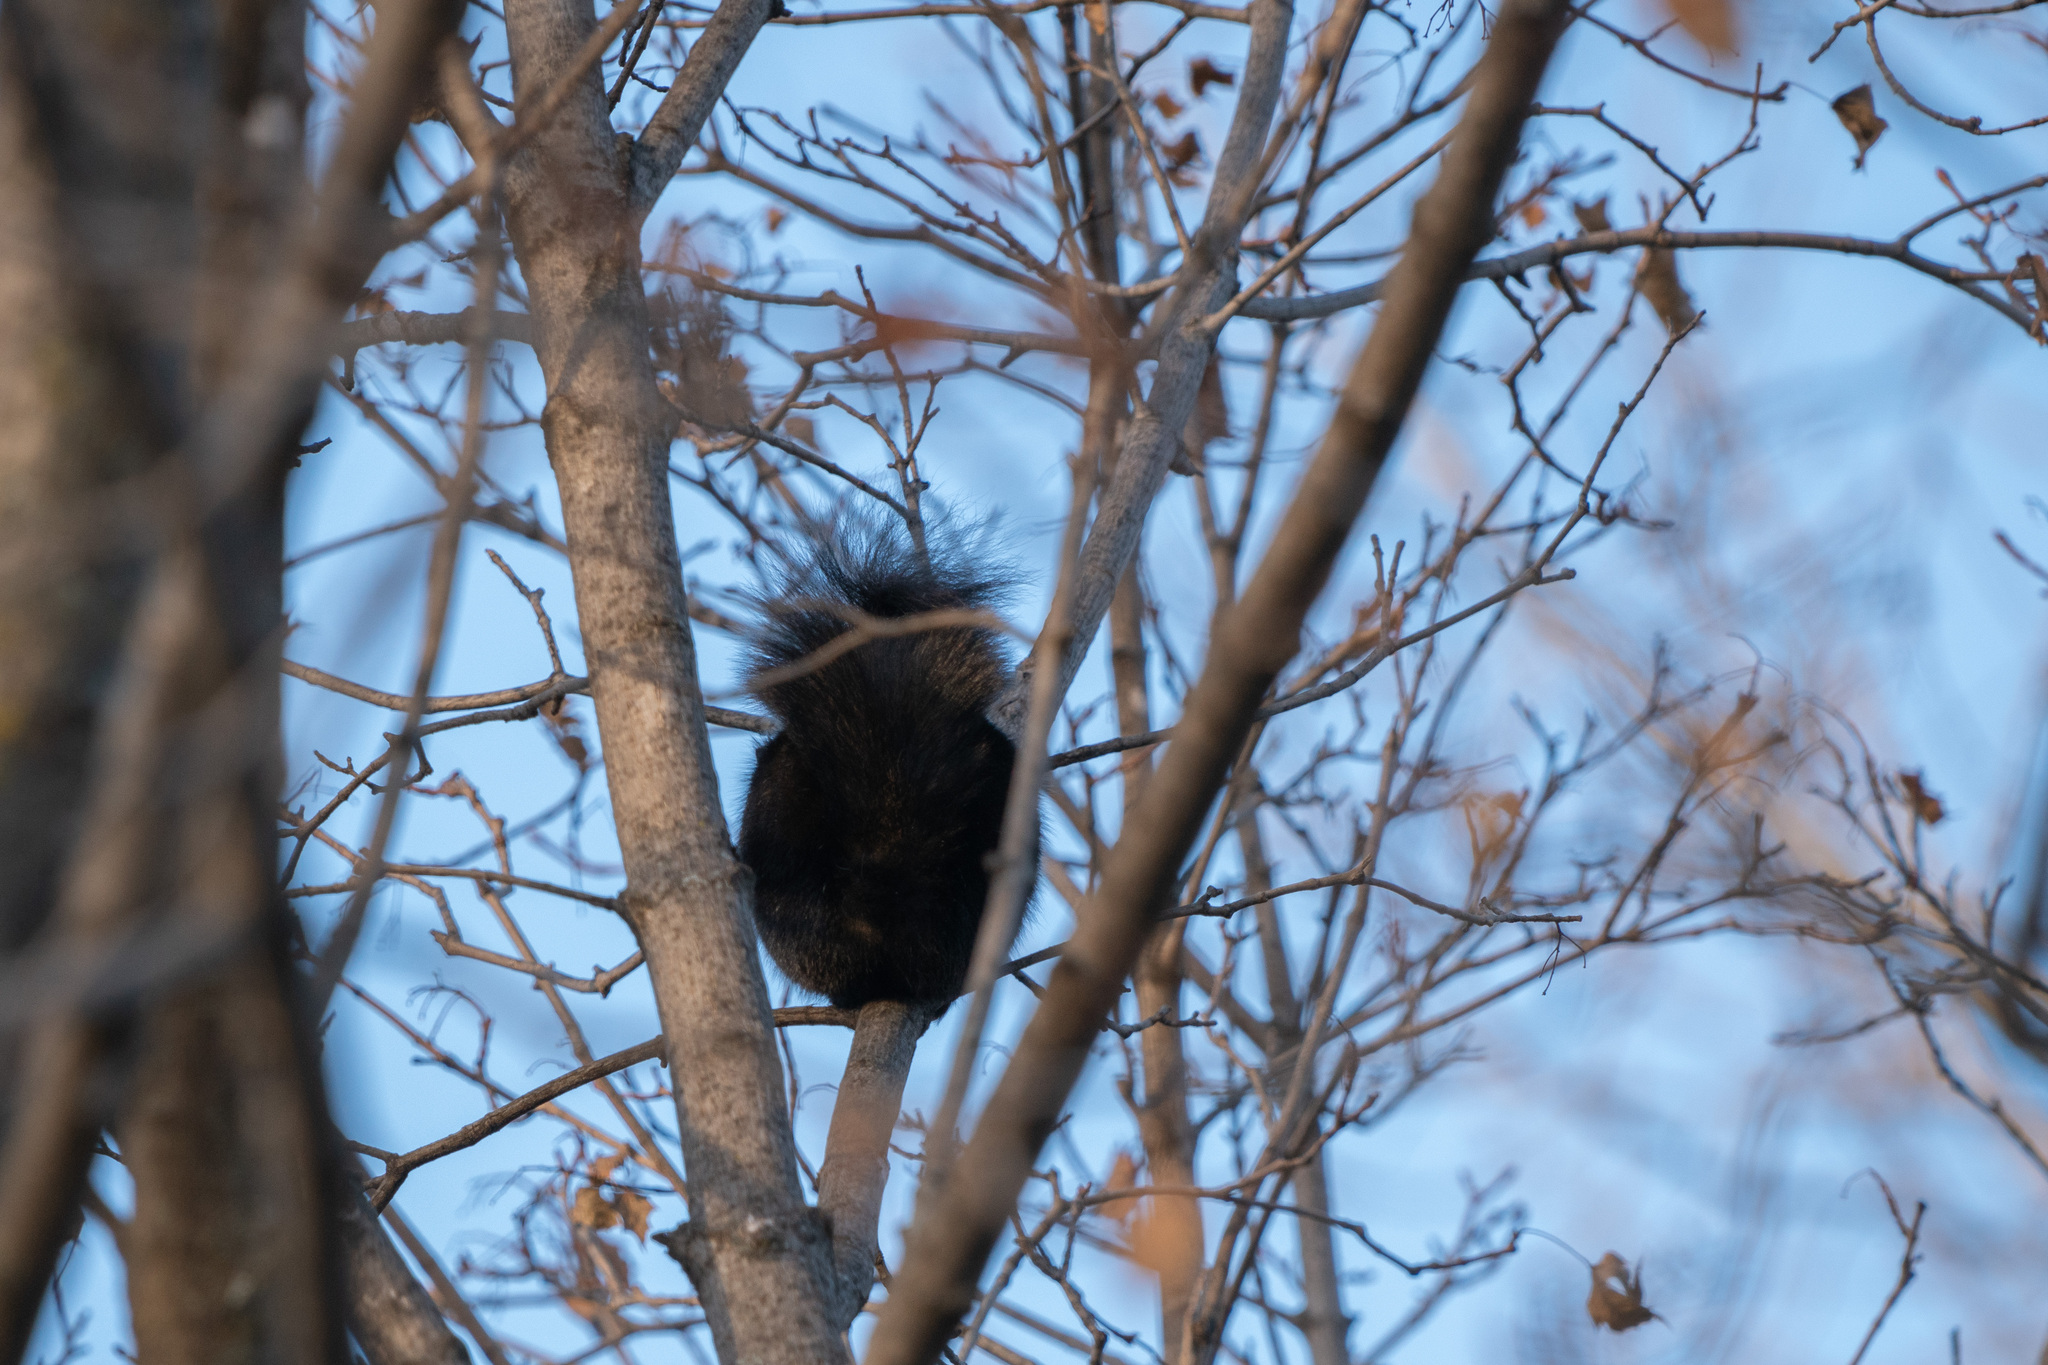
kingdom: Animalia
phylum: Chordata
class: Mammalia
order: Rodentia
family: Sciuridae
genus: Sciurus
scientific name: Sciurus carolinensis
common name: Eastern gray squirrel
